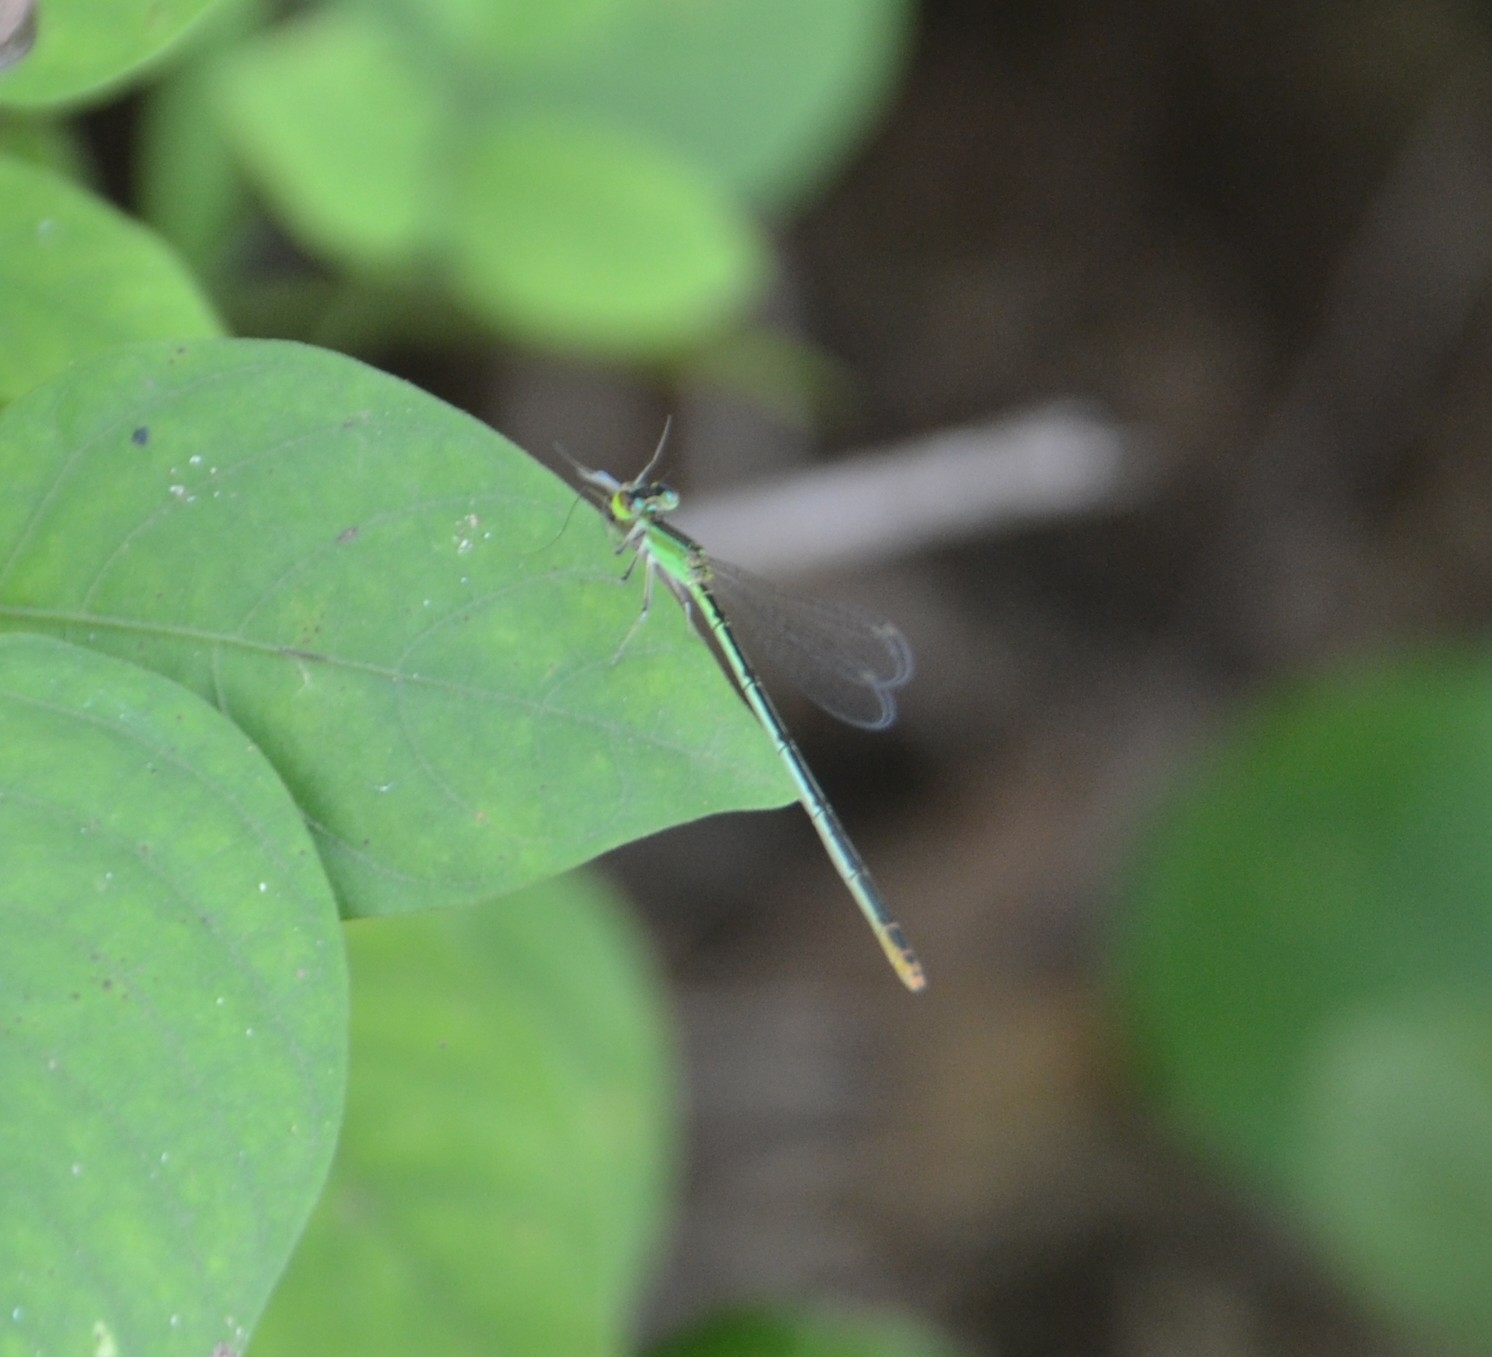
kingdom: Animalia
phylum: Arthropoda
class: Insecta
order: Odonata
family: Coenagrionidae
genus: Agriocnemis
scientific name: Agriocnemis pygmaea
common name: Pygmy wisp
